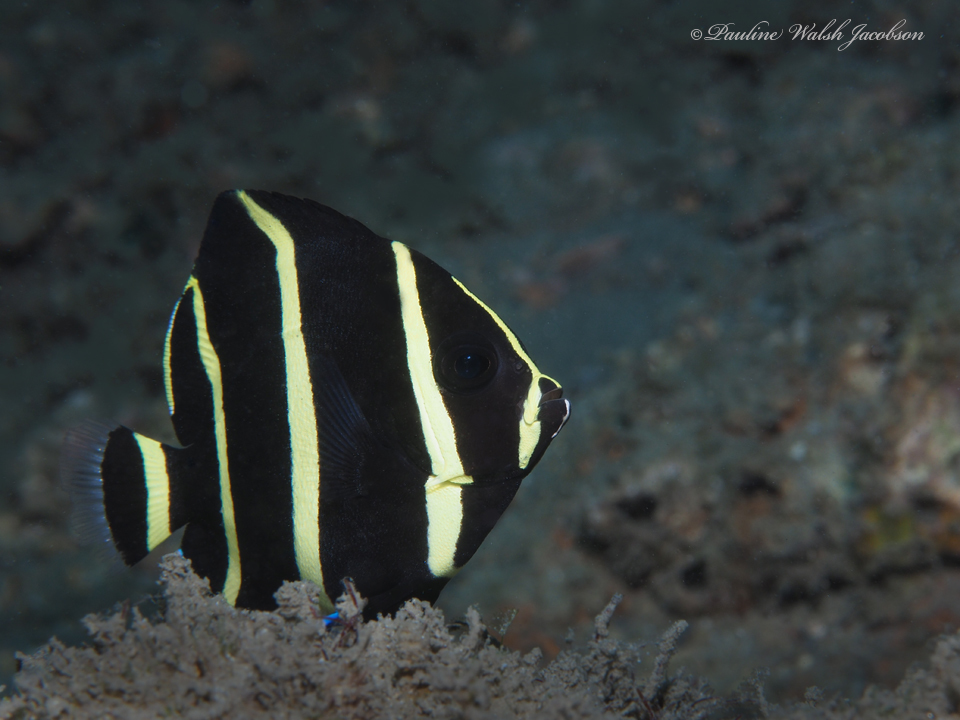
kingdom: Animalia
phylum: Chordata
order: Perciformes
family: Pomacanthidae
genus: Pomacanthus
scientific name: Pomacanthus arcuatus
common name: Gray angelfish
